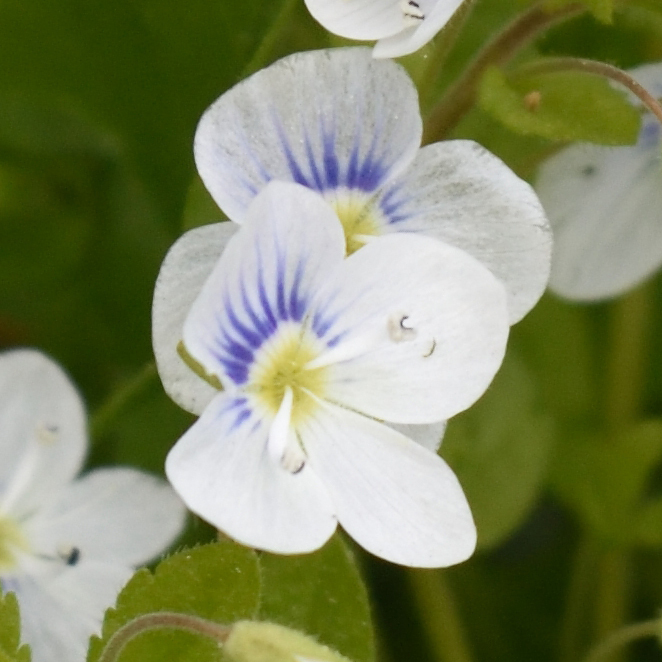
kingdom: Plantae
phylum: Tracheophyta
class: Magnoliopsida
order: Lamiales
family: Plantaginaceae
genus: Veronica
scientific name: Veronica filiformis
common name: Slender speedwell
